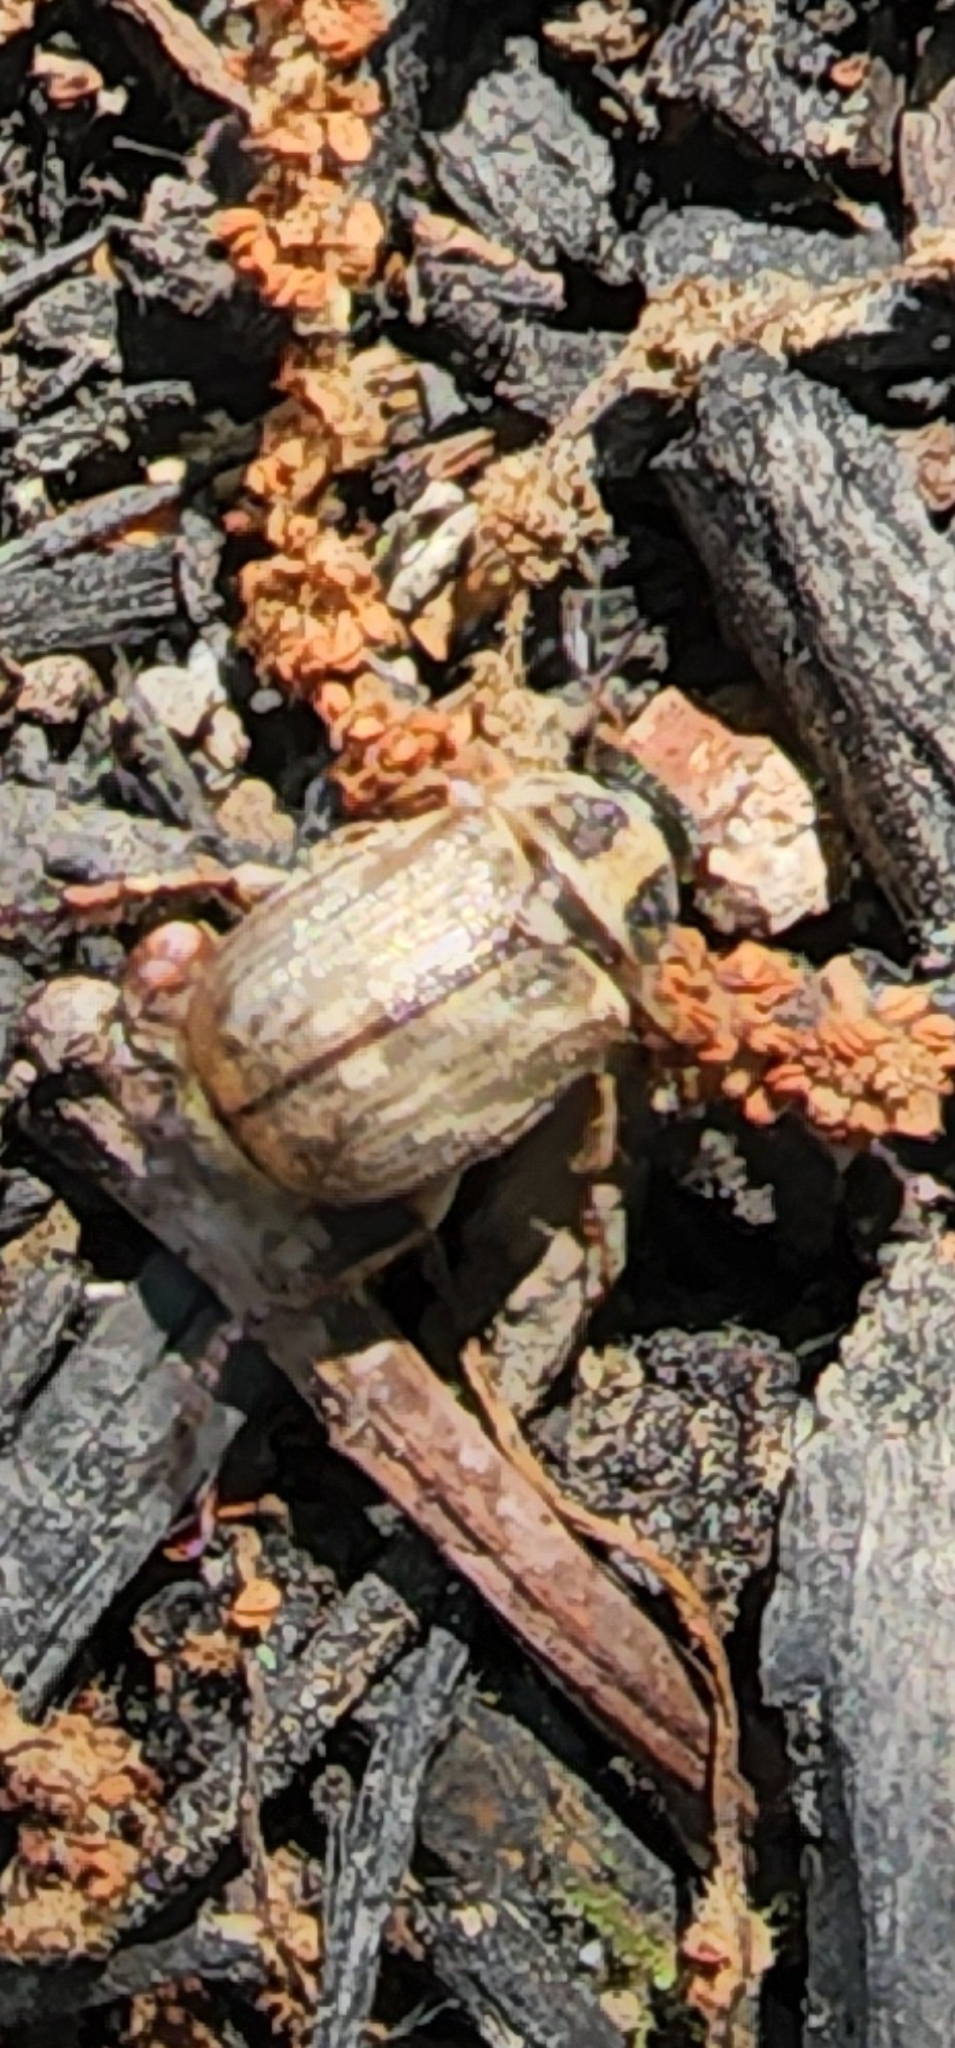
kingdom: Animalia
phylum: Arthropoda
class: Insecta
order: Coleoptera
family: Scarabaeidae
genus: Exomala
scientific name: Exomala orientalis
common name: Oriental beetle
